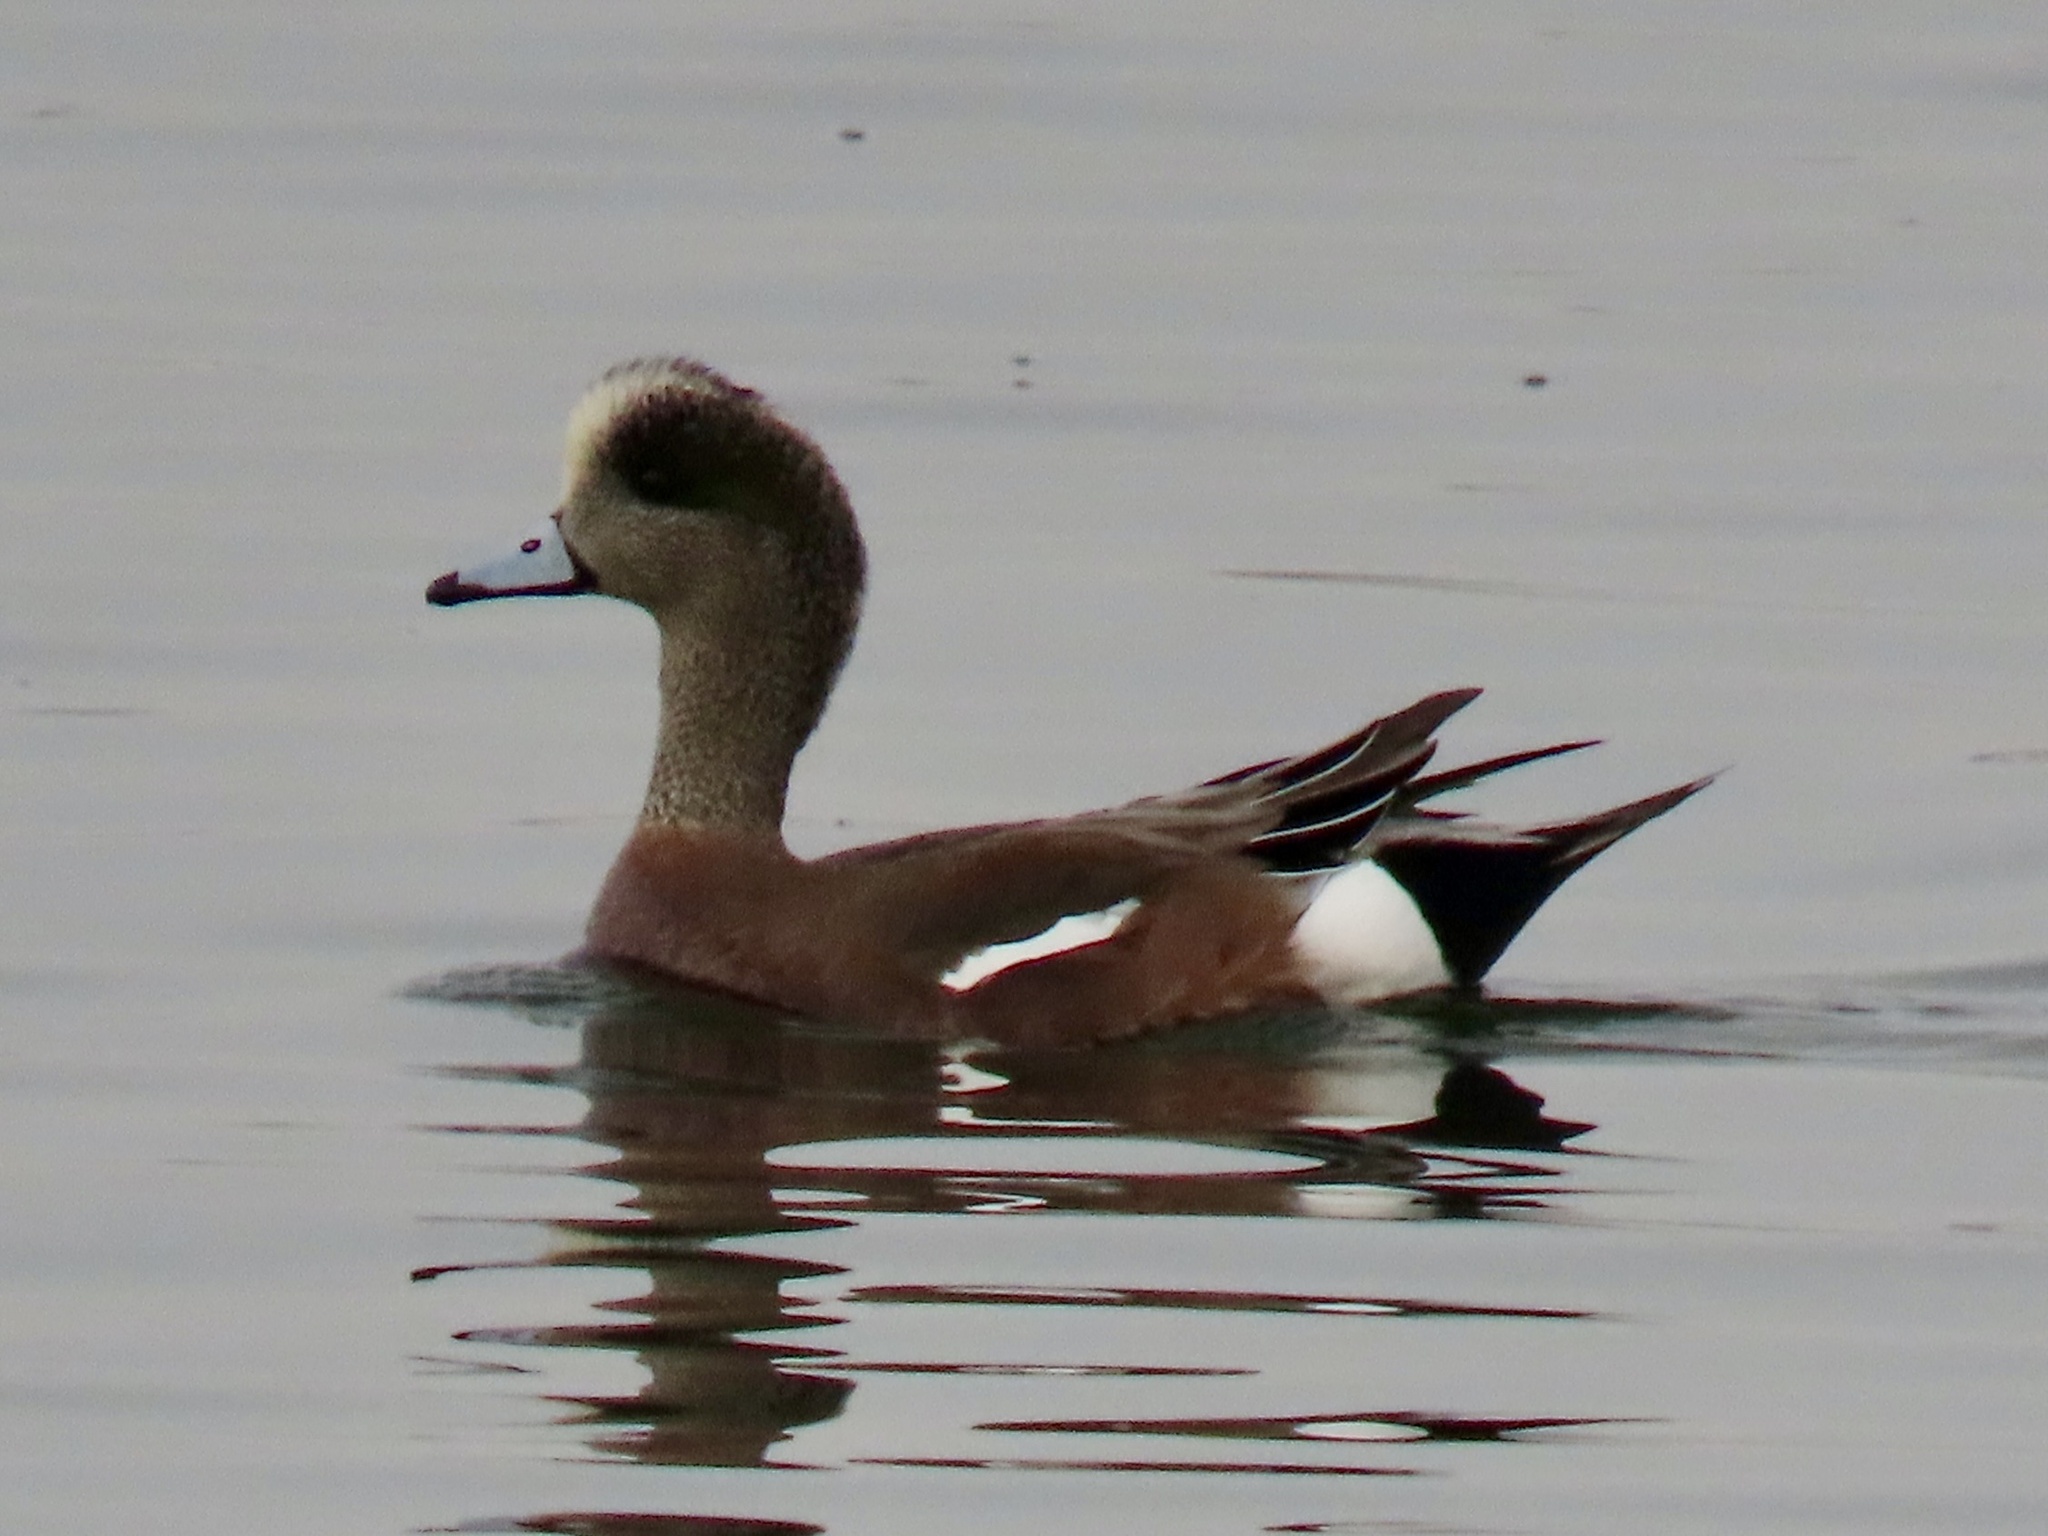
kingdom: Animalia
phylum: Chordata
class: Aves
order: Anseriformes
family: Anatidae
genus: Mareca
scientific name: Mareca americana
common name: American wigeon
